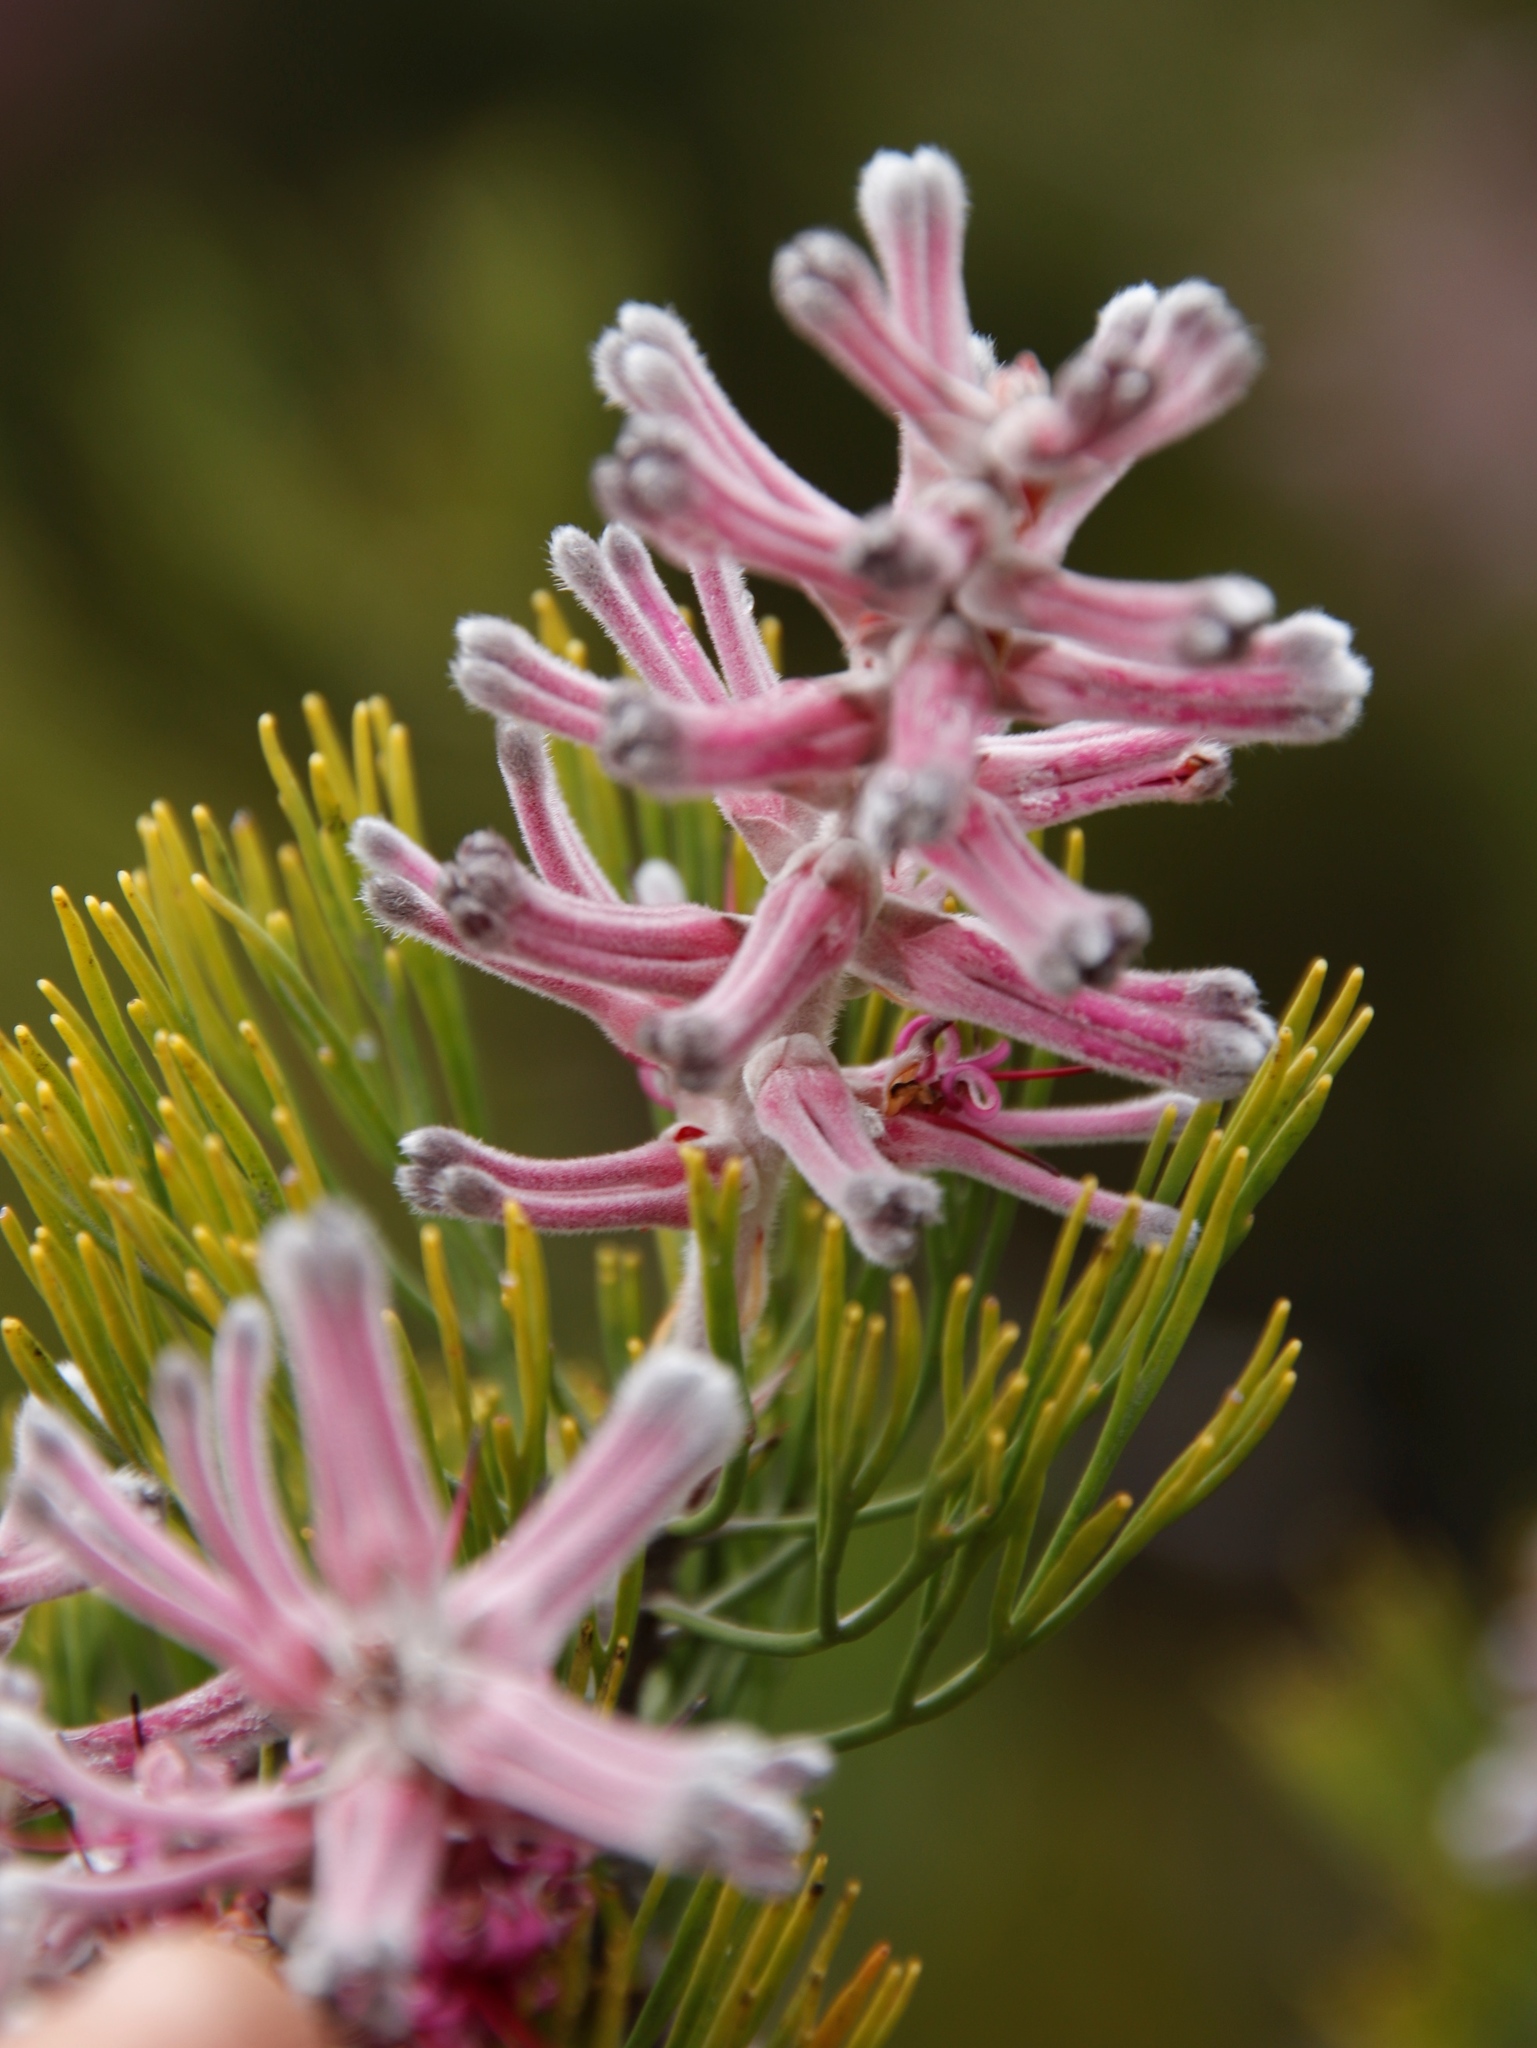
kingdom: Plantae
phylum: Tracheophyta
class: Magnoliopsida
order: Proteales
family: Proteaceae
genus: Paranomus
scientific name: Paranomus bracteolaris
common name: Bokkeveld tree sceptre
